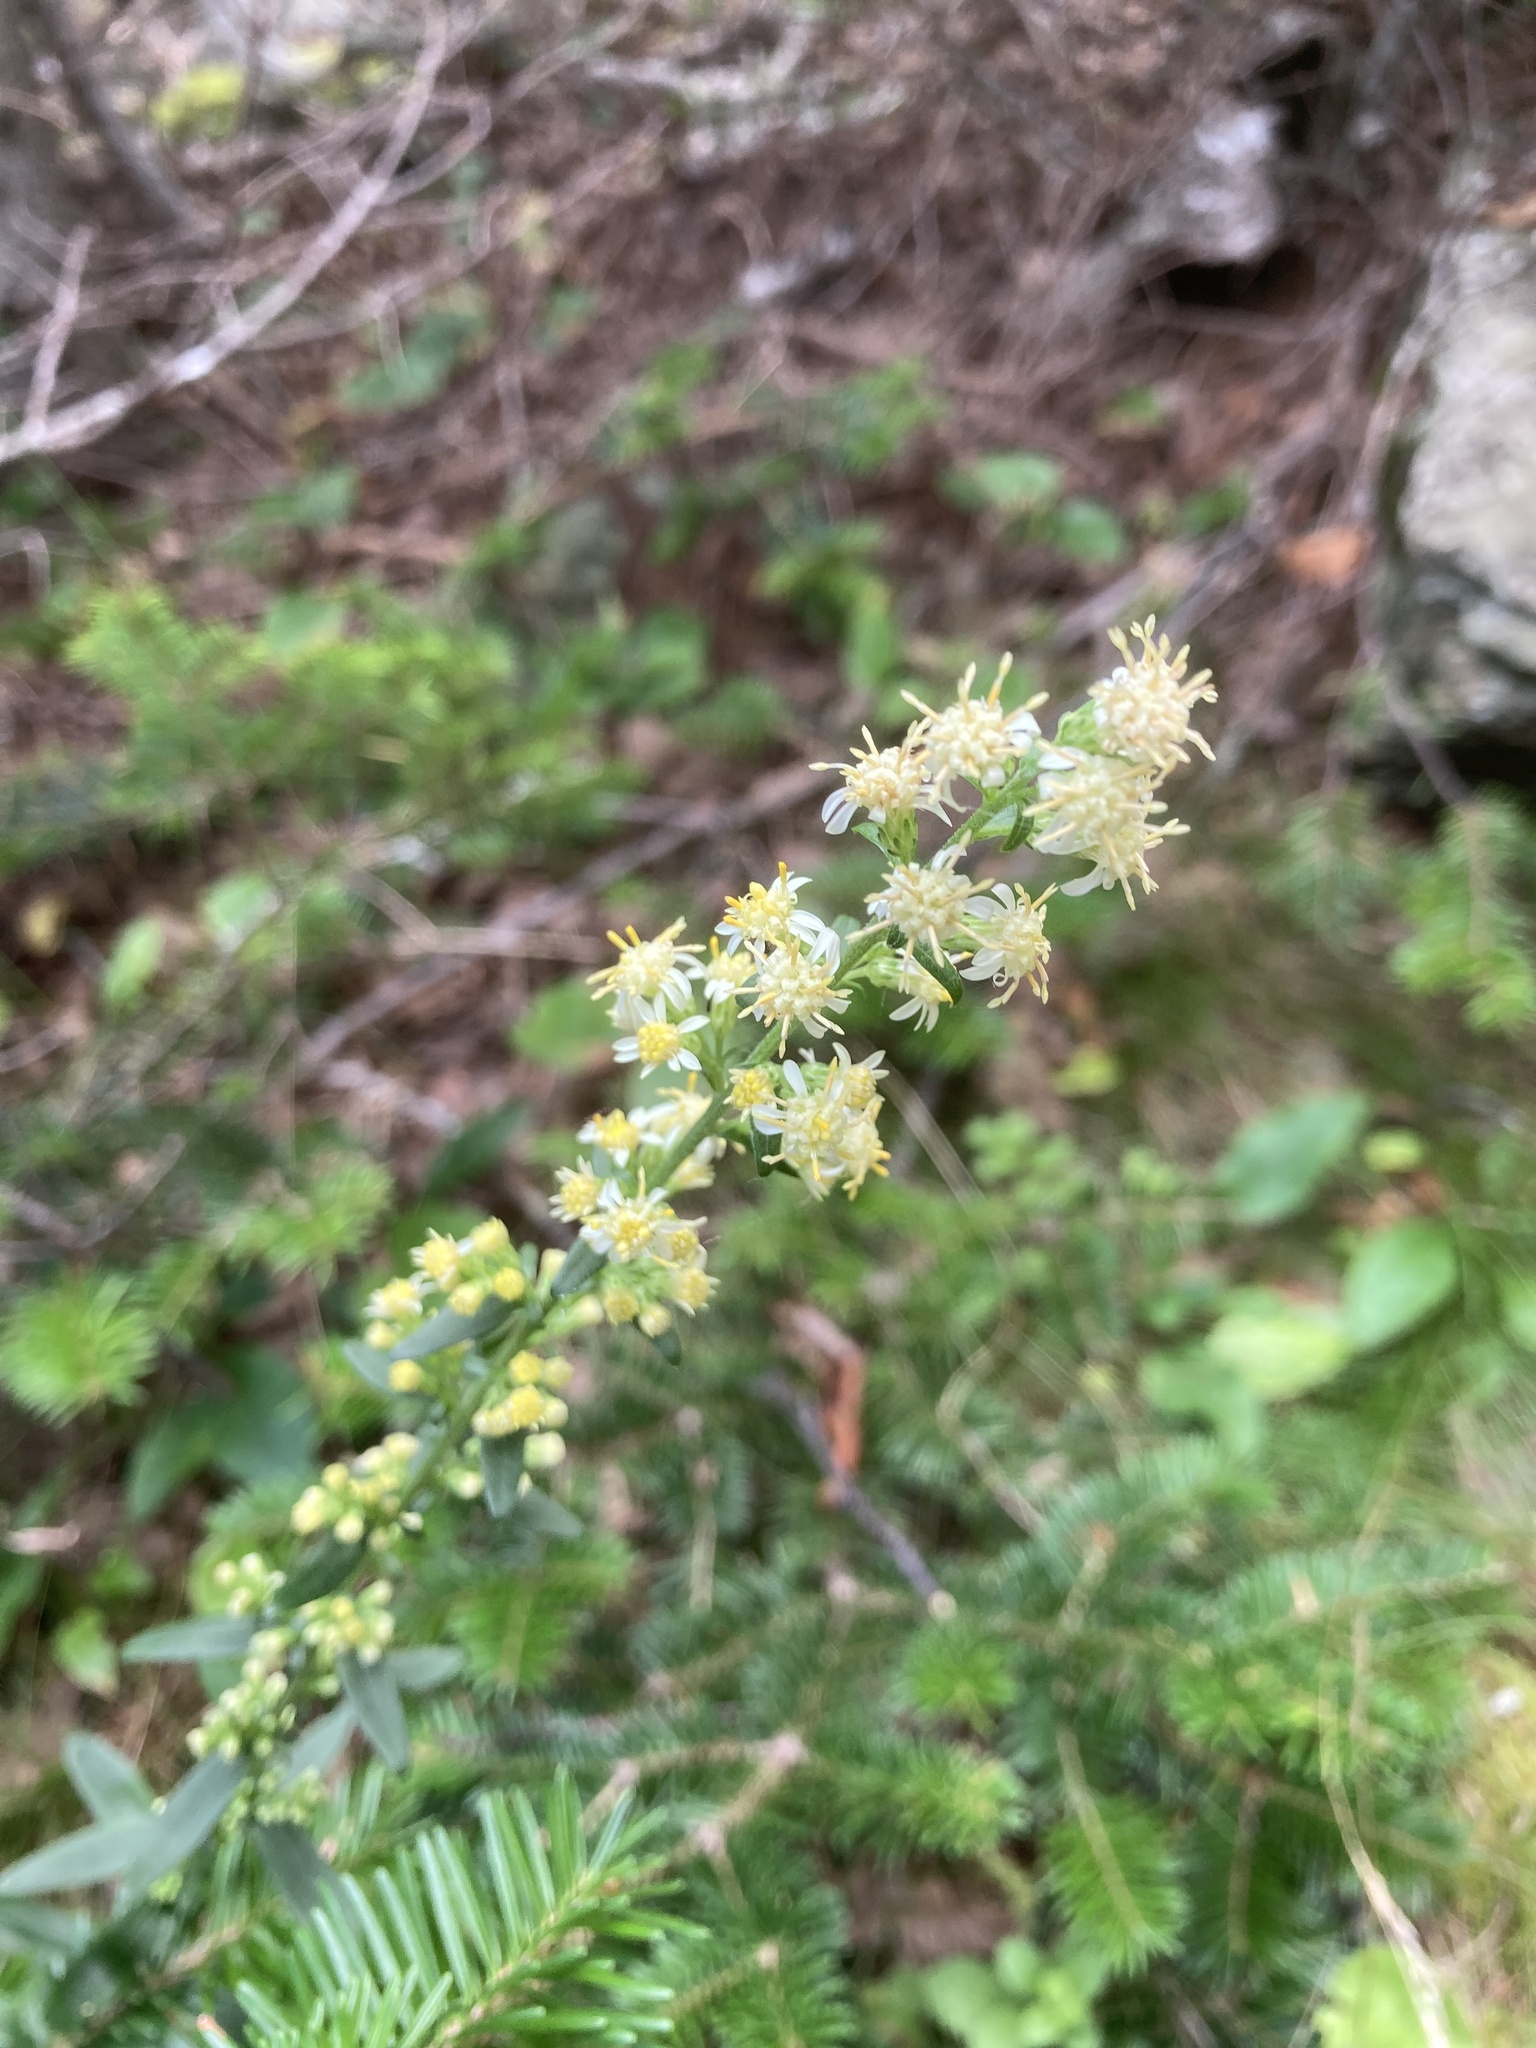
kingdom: Plantae
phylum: Tracheophyta
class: Magnoliopsida
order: Asterales
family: Asteraceae
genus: Solidago
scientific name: Solidago bicolor
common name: Silverrod
